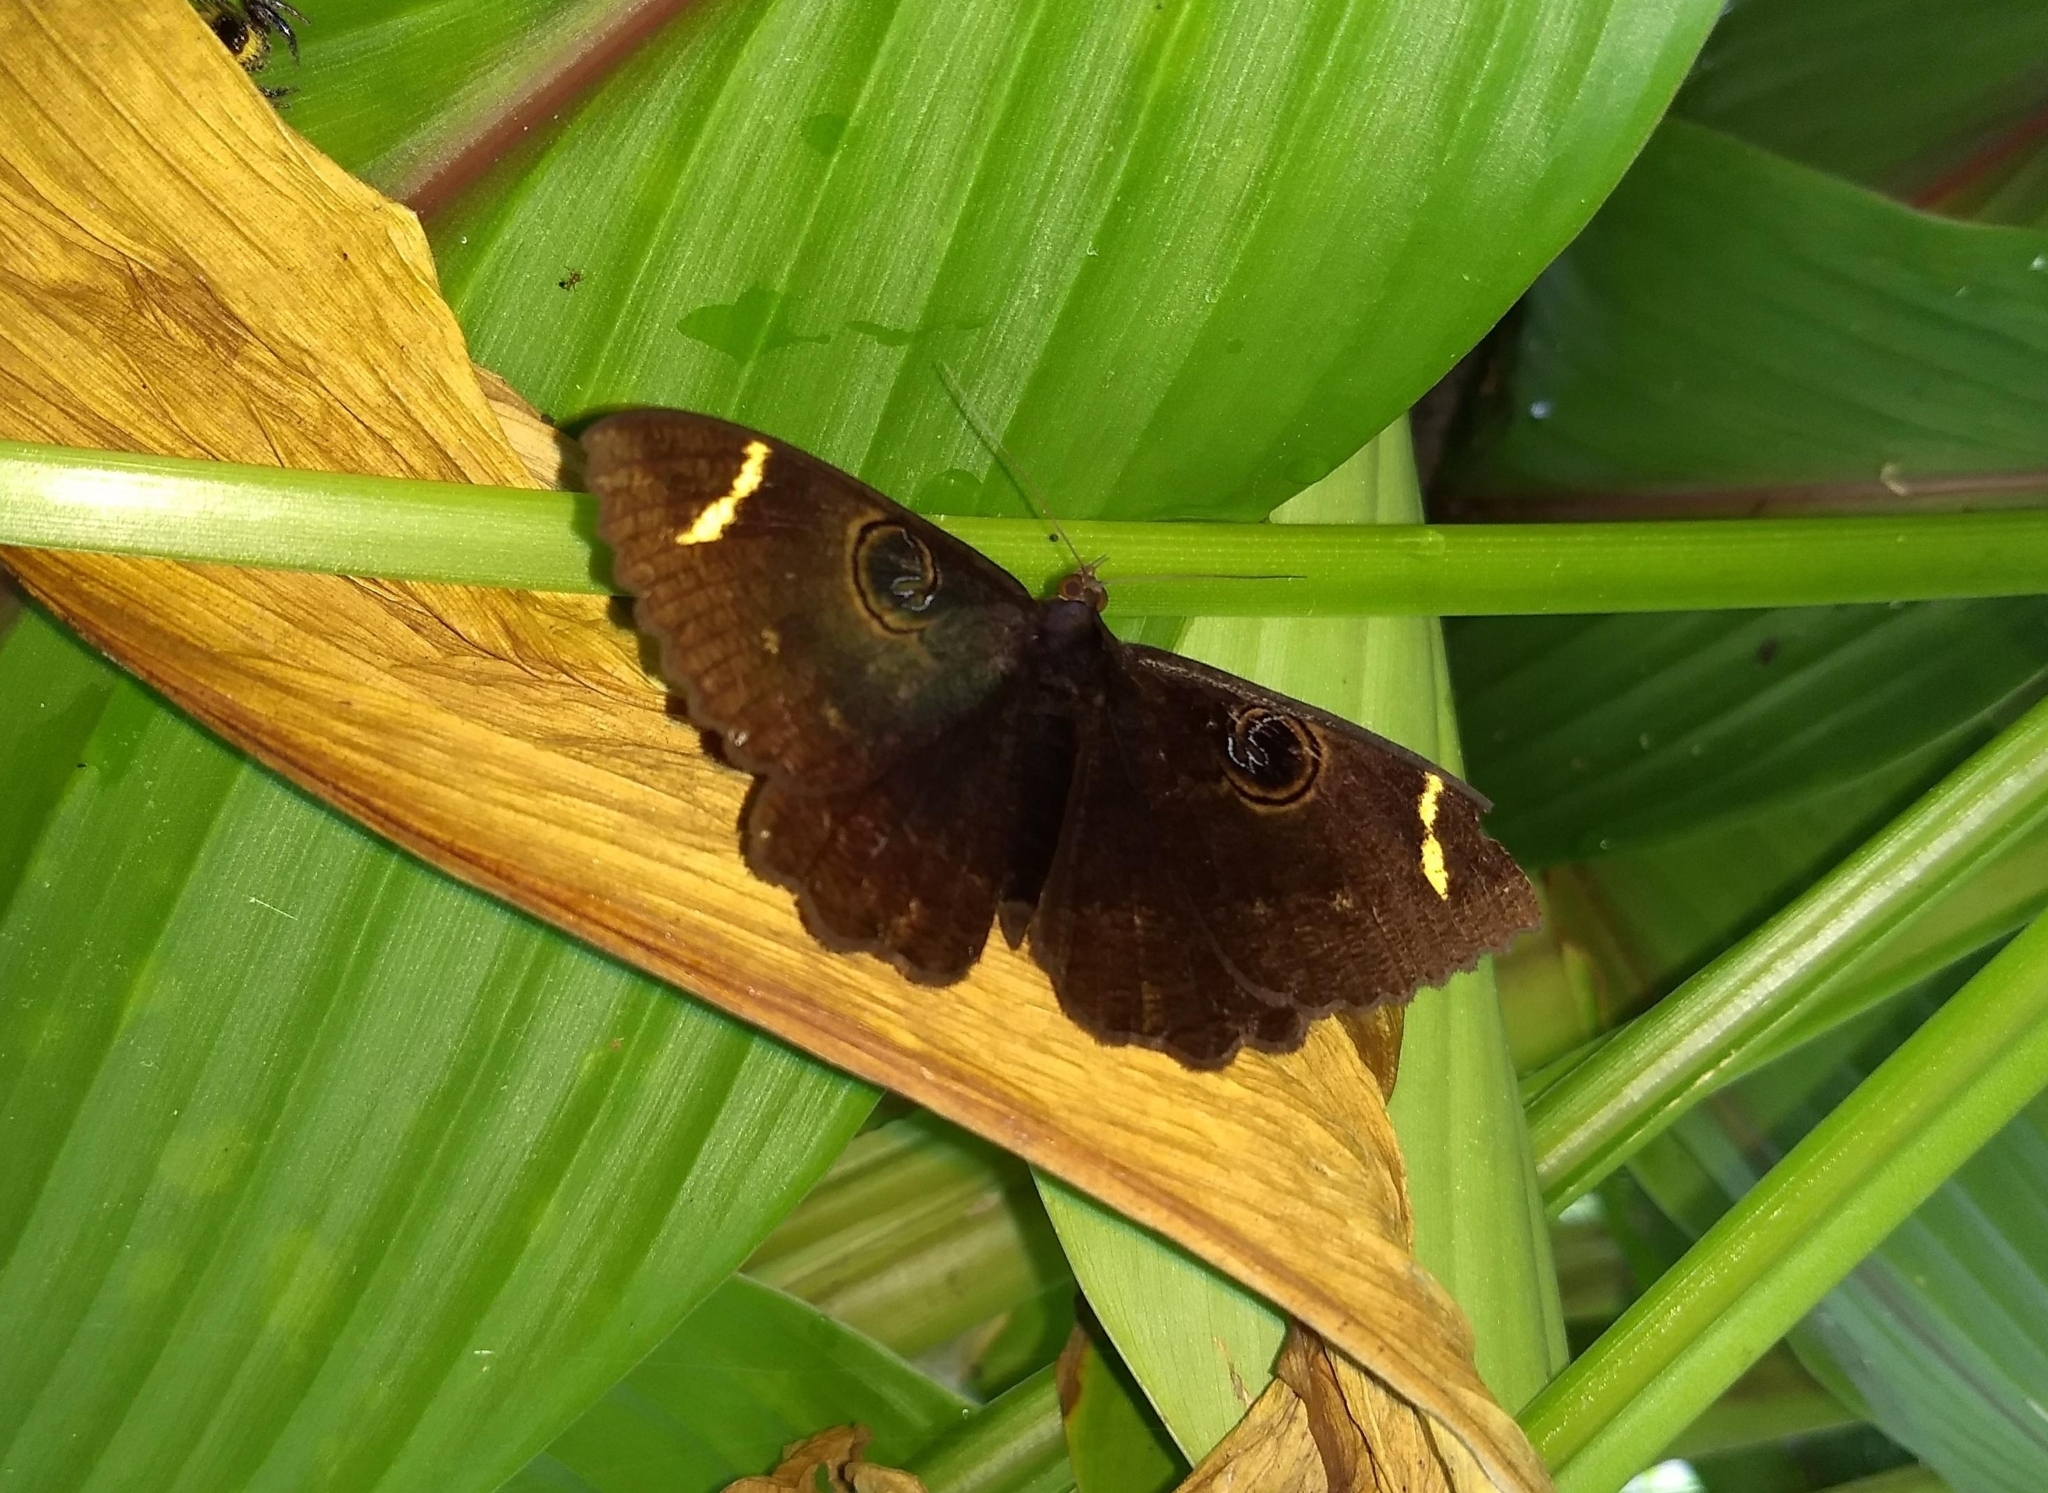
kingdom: Animalia
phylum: Arthropoda
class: Insecta
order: Lepidoptera
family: Erebidae
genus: Erebus
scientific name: Erebus hieroglyphica
